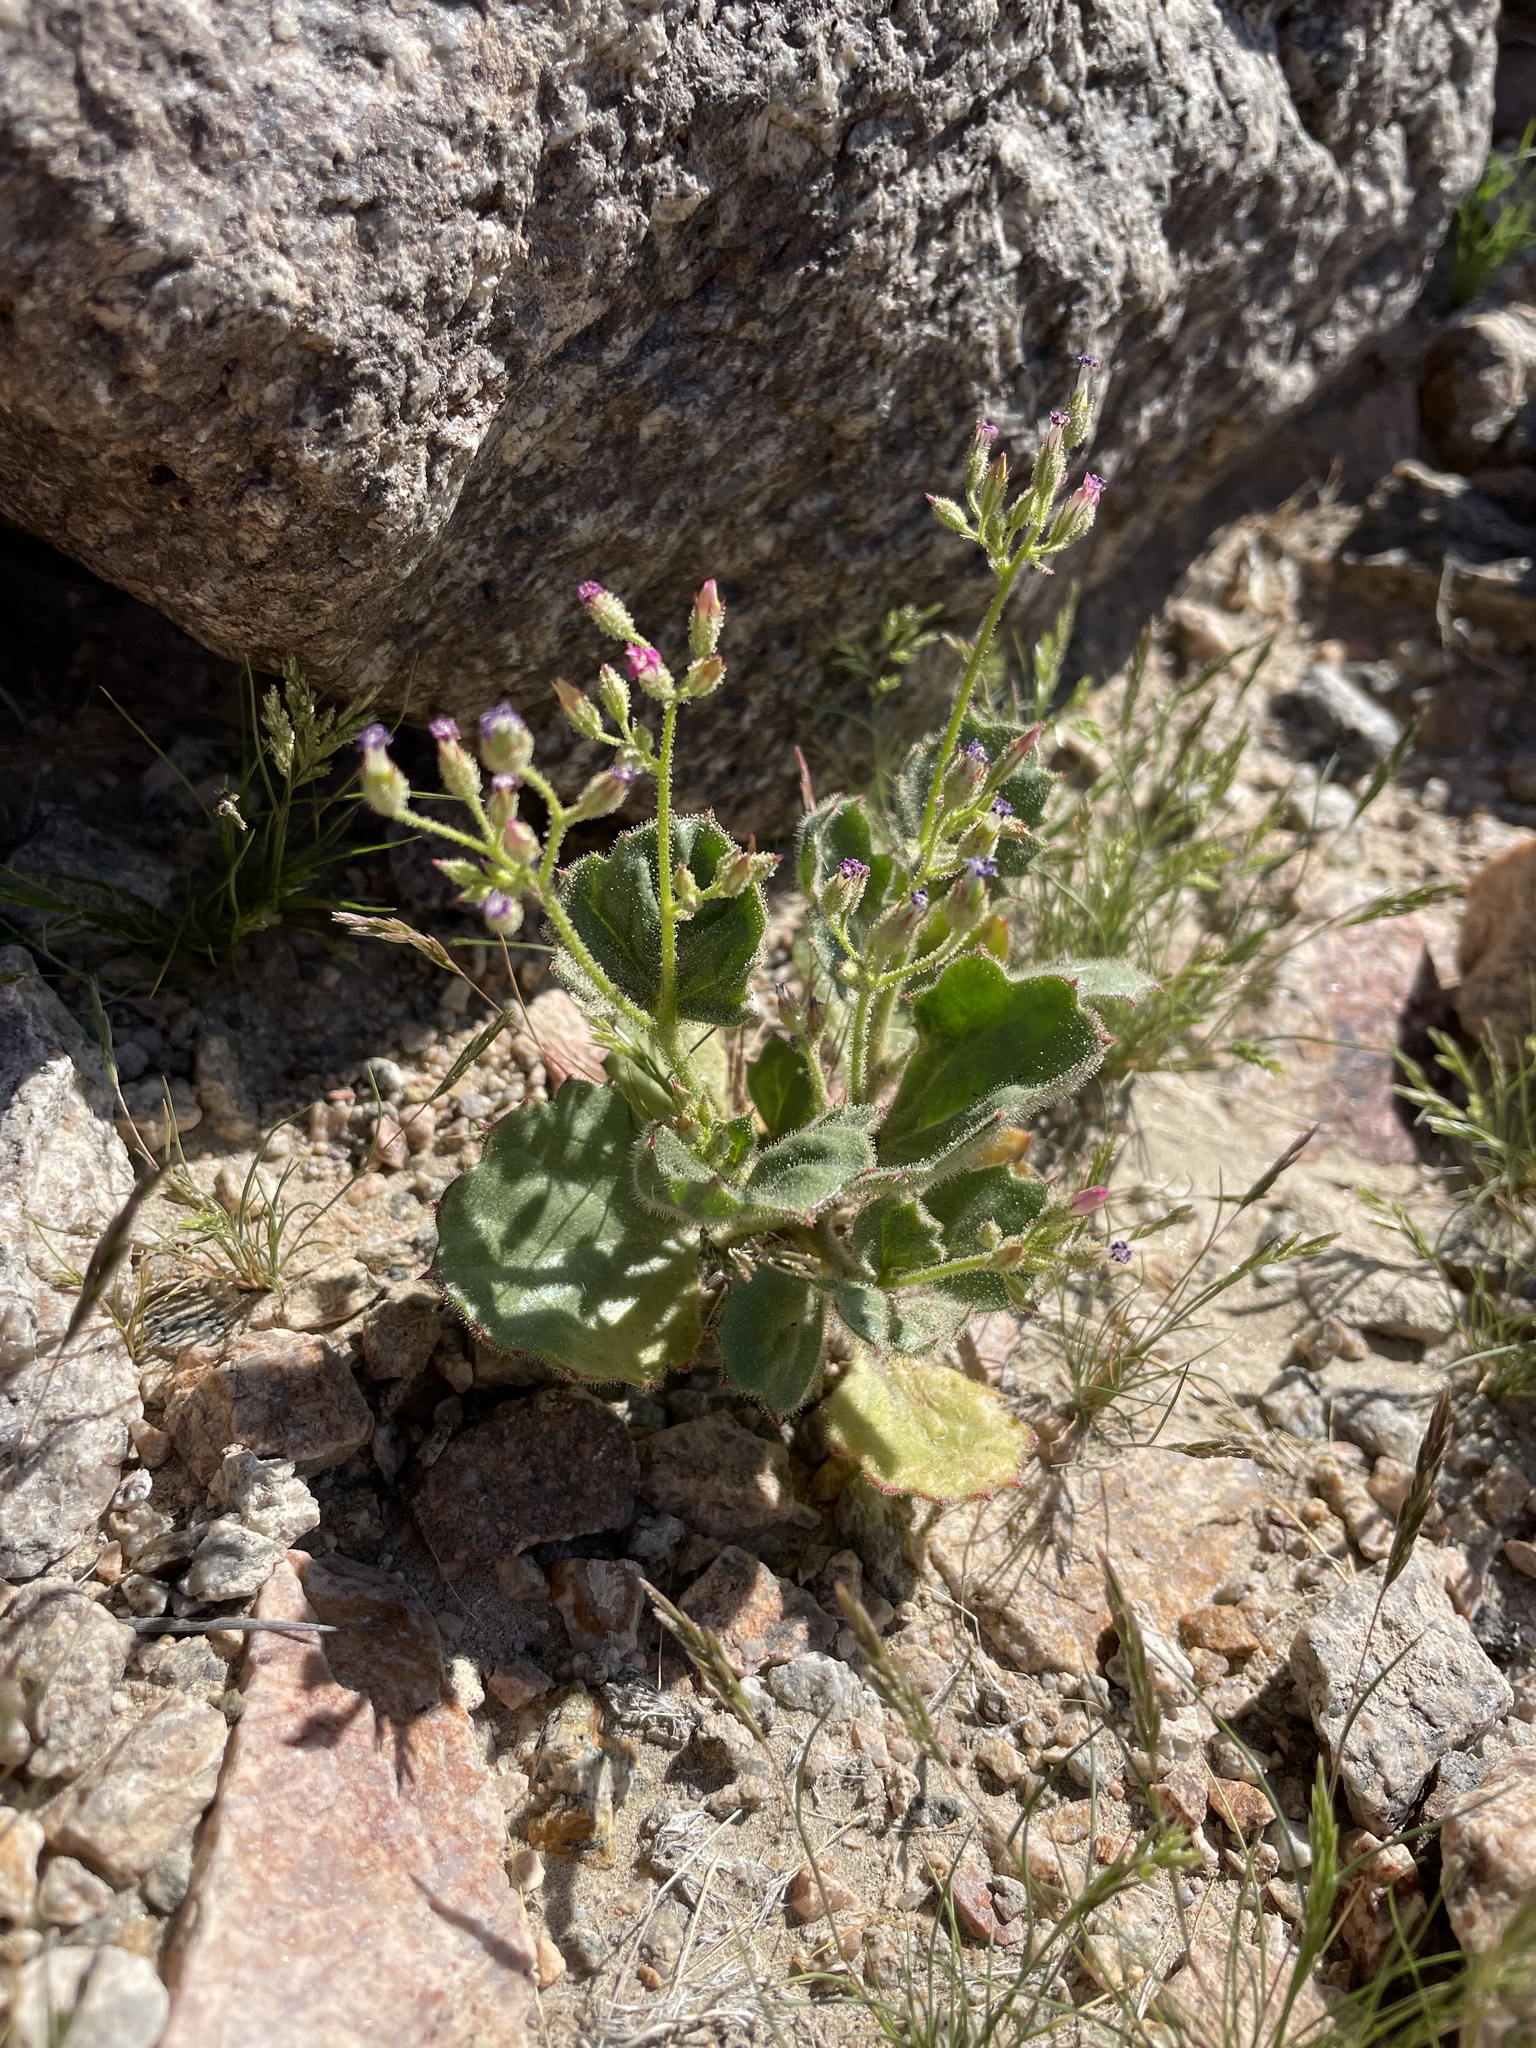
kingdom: Plantae
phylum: Tracheophyta
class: Magnoliopsida
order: Ericales
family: Polemoniaceae
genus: Aliciella
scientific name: Aliciella latifolia
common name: Broad-leaf gilia
